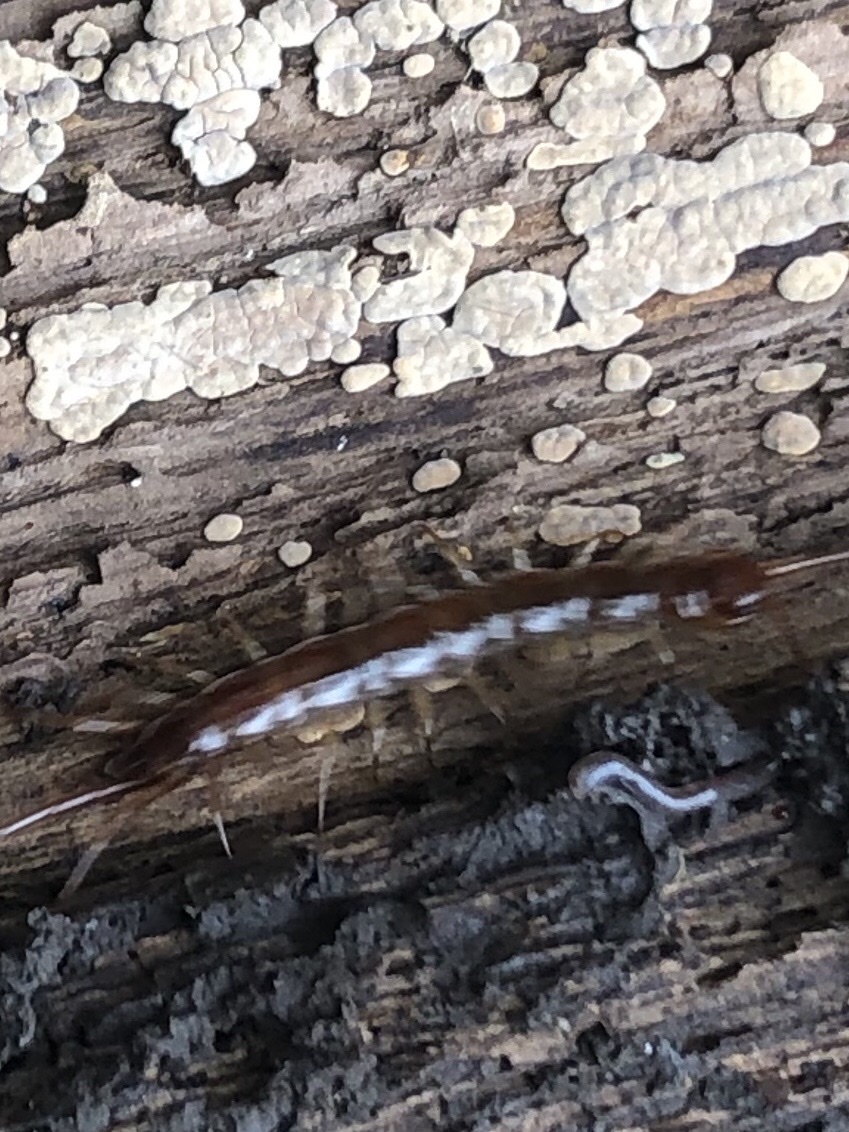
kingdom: Animalia
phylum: Arthropoda
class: Chilopoda
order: Lithobiomorpha
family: Lithobiidae
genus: Lithobius
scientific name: Lithobius forficatus
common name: Centipede
